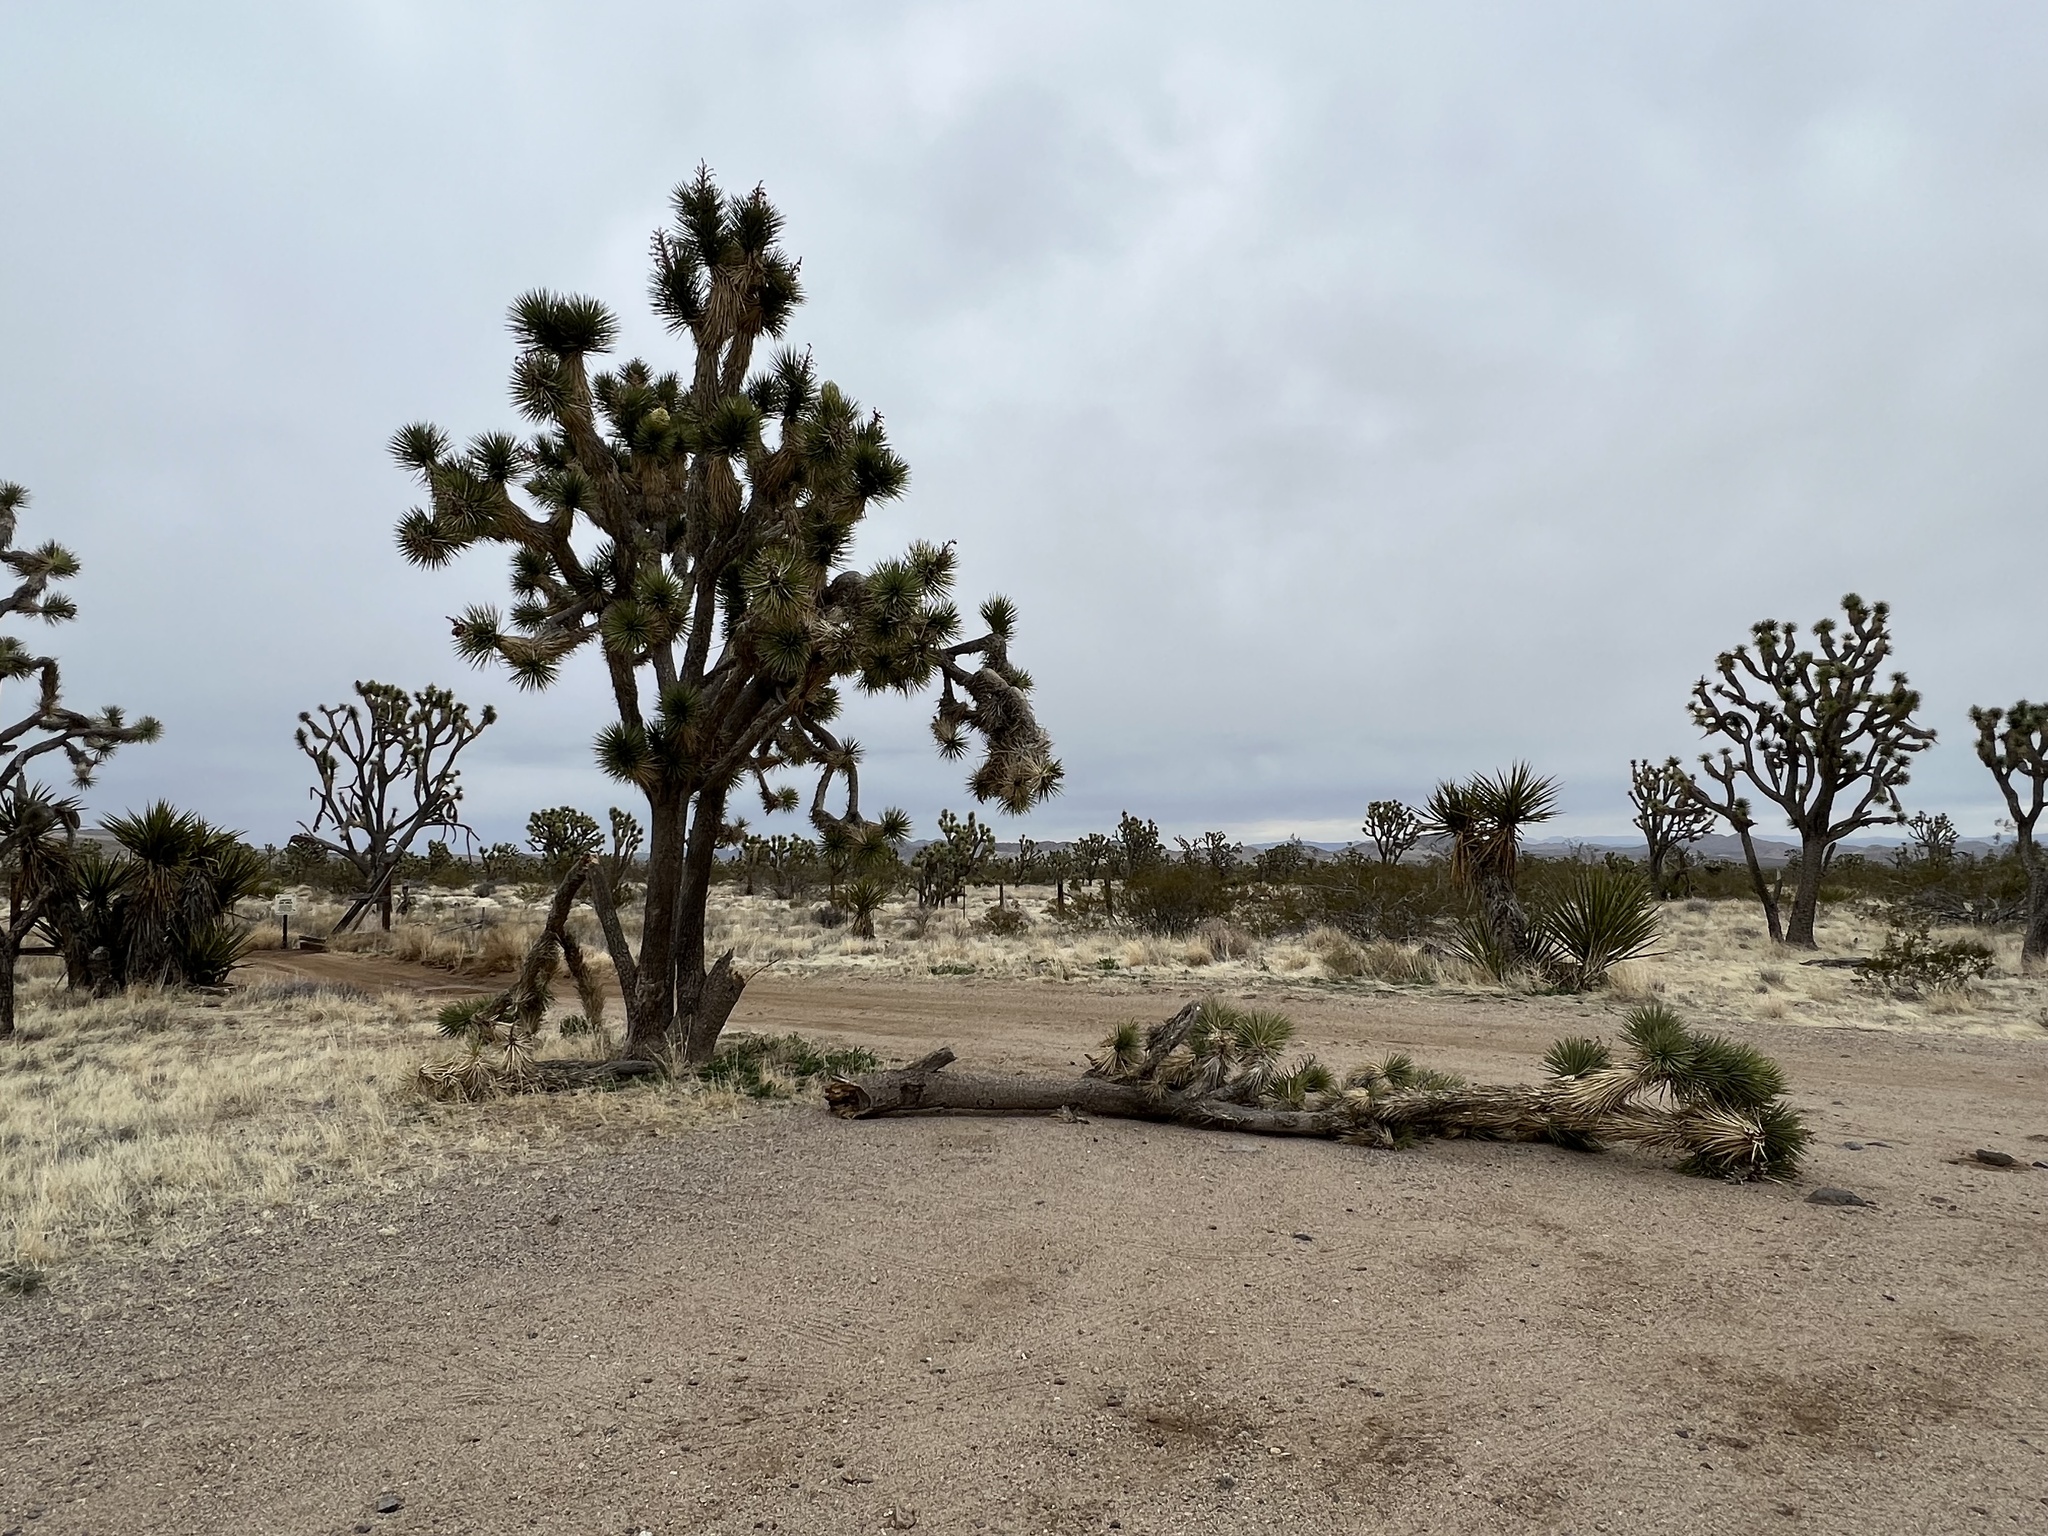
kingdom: Plantae
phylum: Tracheophyta
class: Liliopsida
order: Asparagales
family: Asparagaceae
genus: Yucca
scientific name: Yucca brevifolia
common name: Joshua tree
